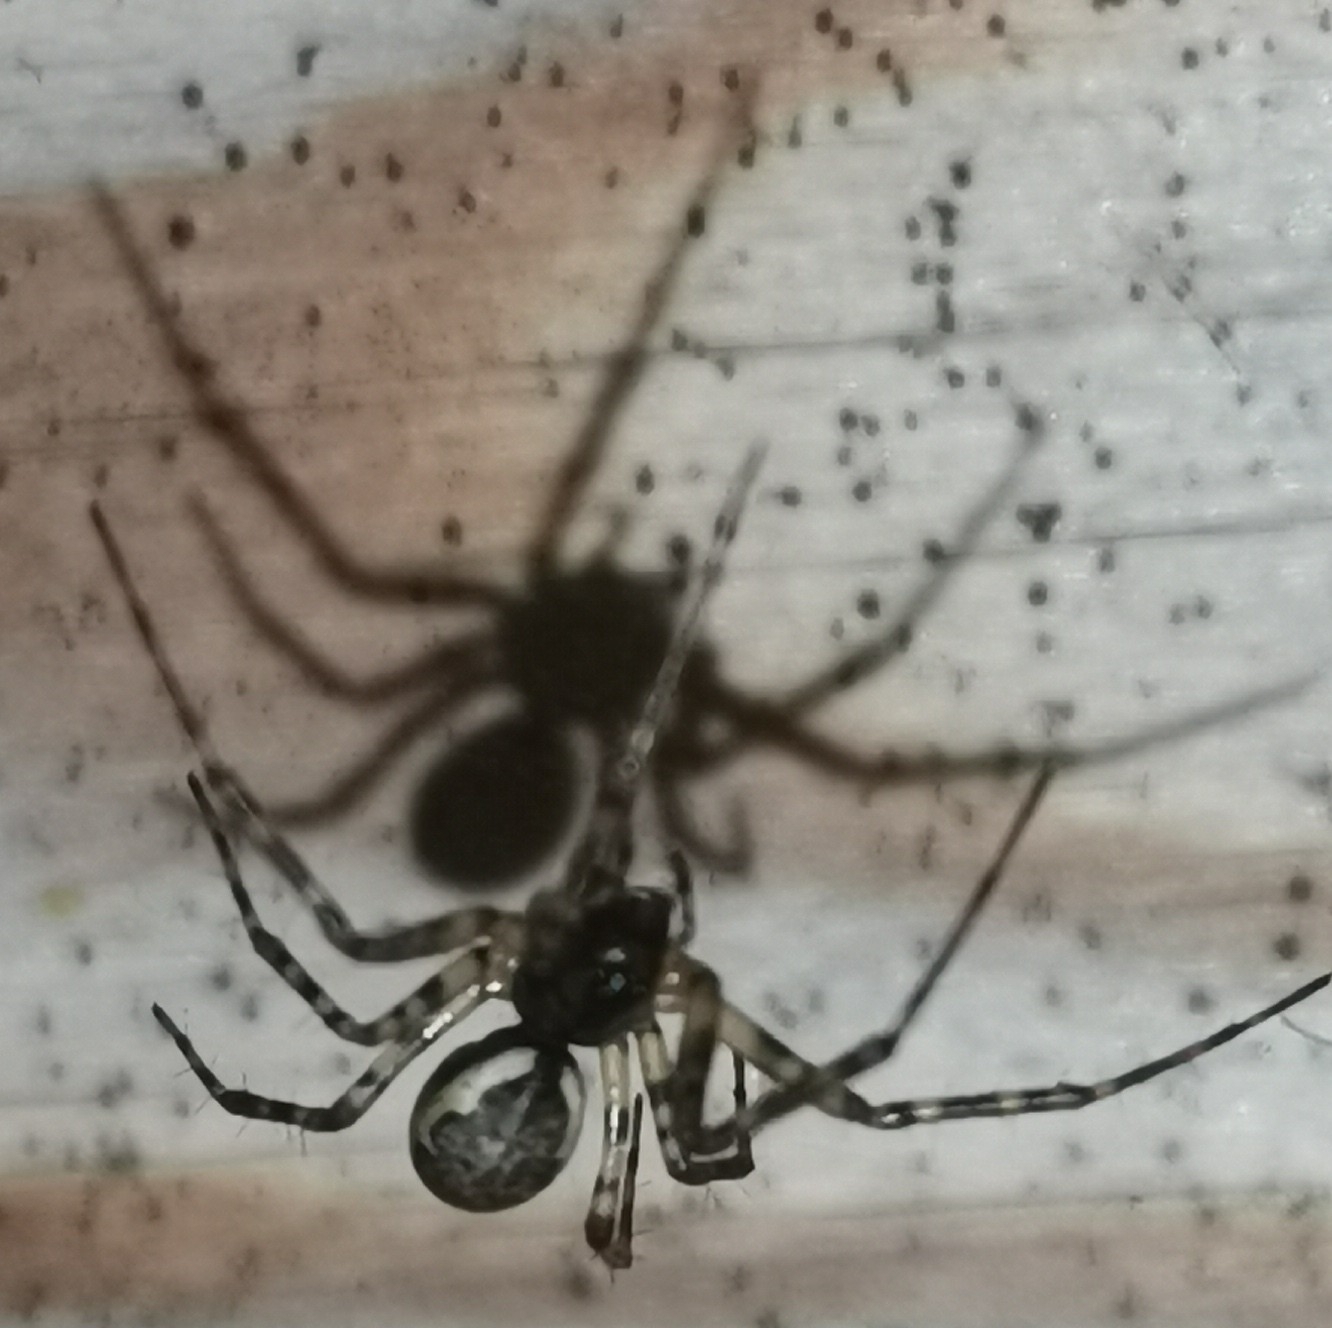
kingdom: Animalia
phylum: Arthropoda
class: Arachnida
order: Araneae
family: Linyphiidae
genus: Neriene
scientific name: Neriene montana
